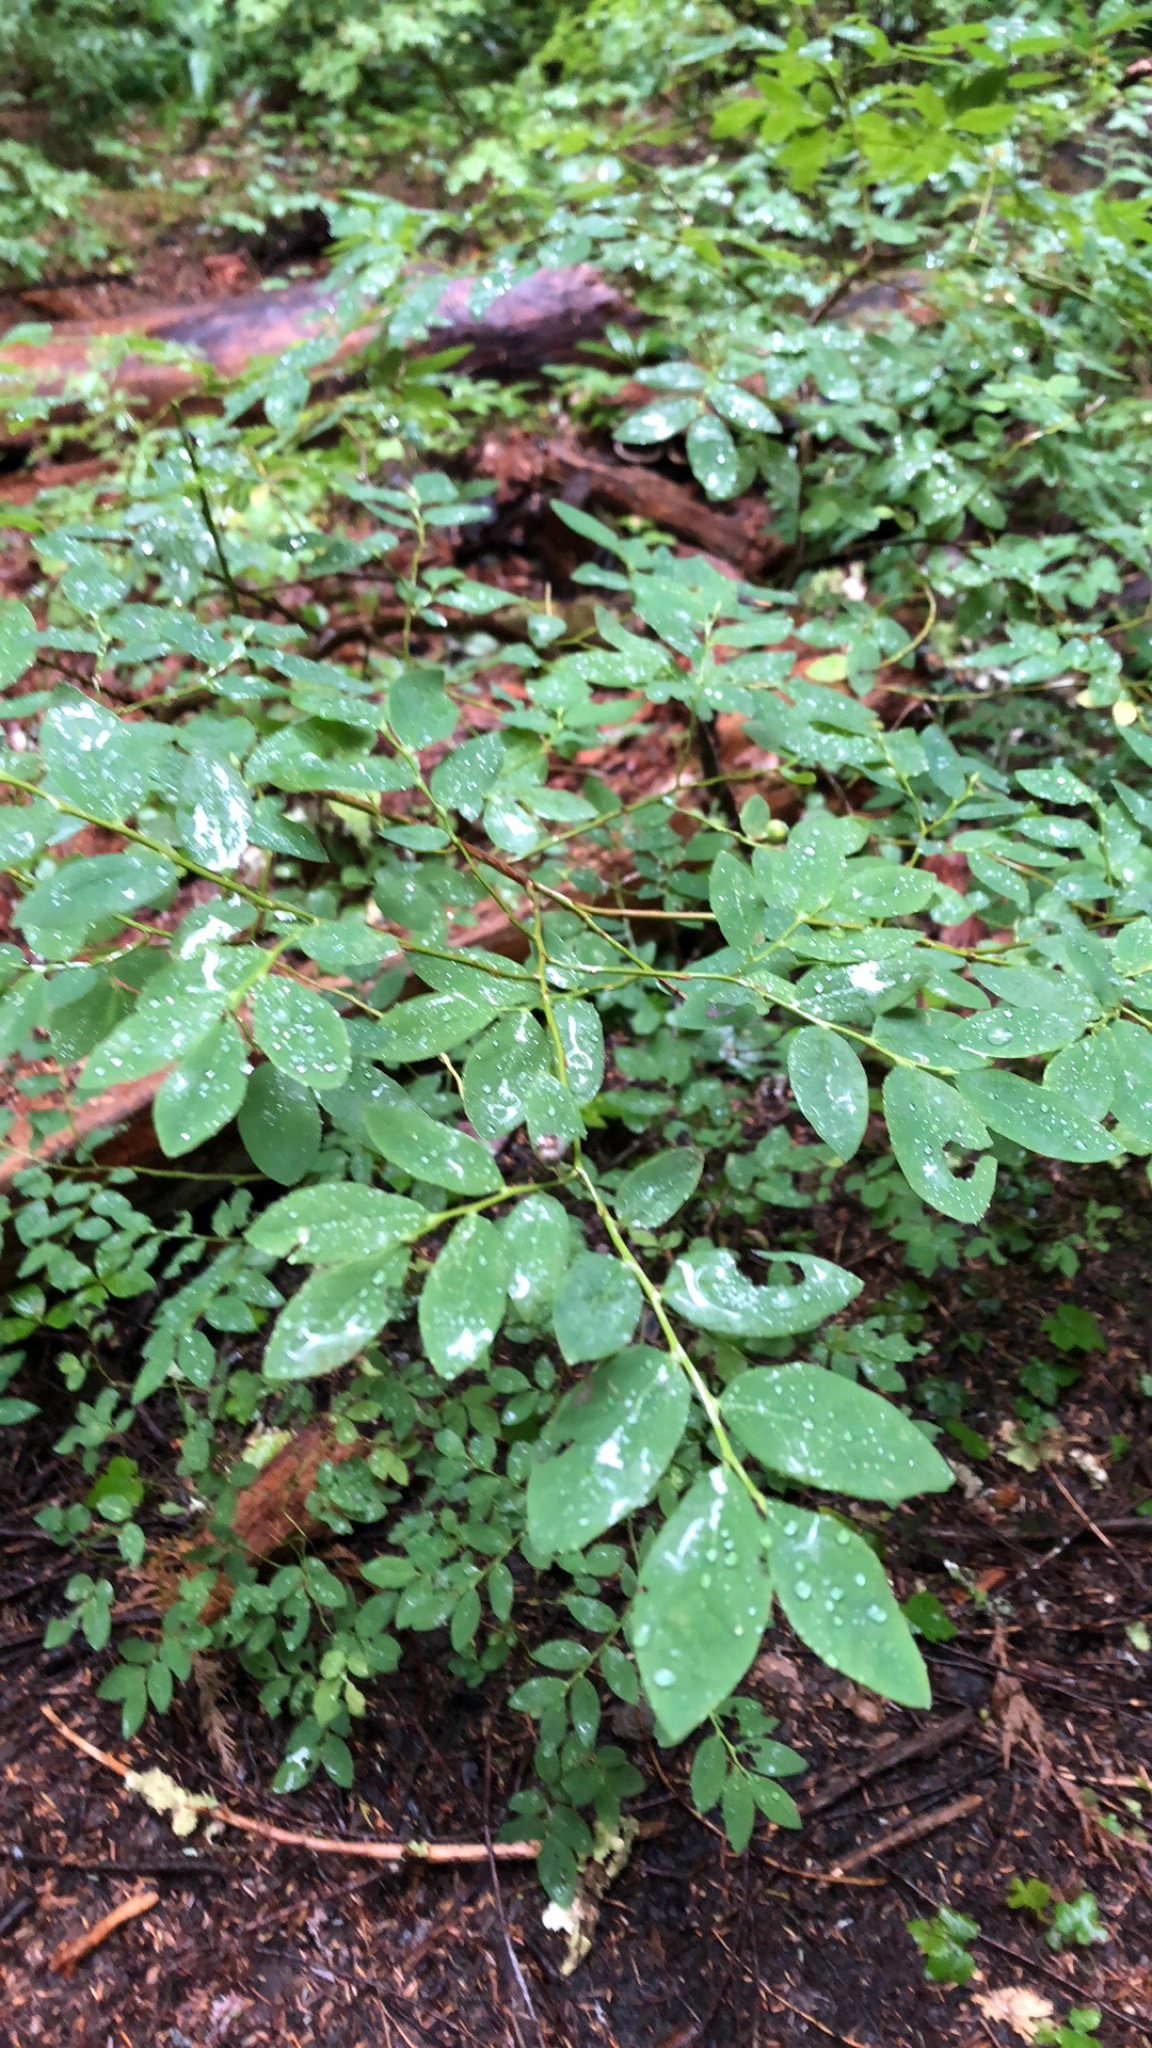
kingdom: Plantae
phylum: Tracheophyta
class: Magnoliopsida
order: Ericales
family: Ericaceae
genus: Vaccinium
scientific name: Vaccinium ovalifolium
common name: Early blueberry
